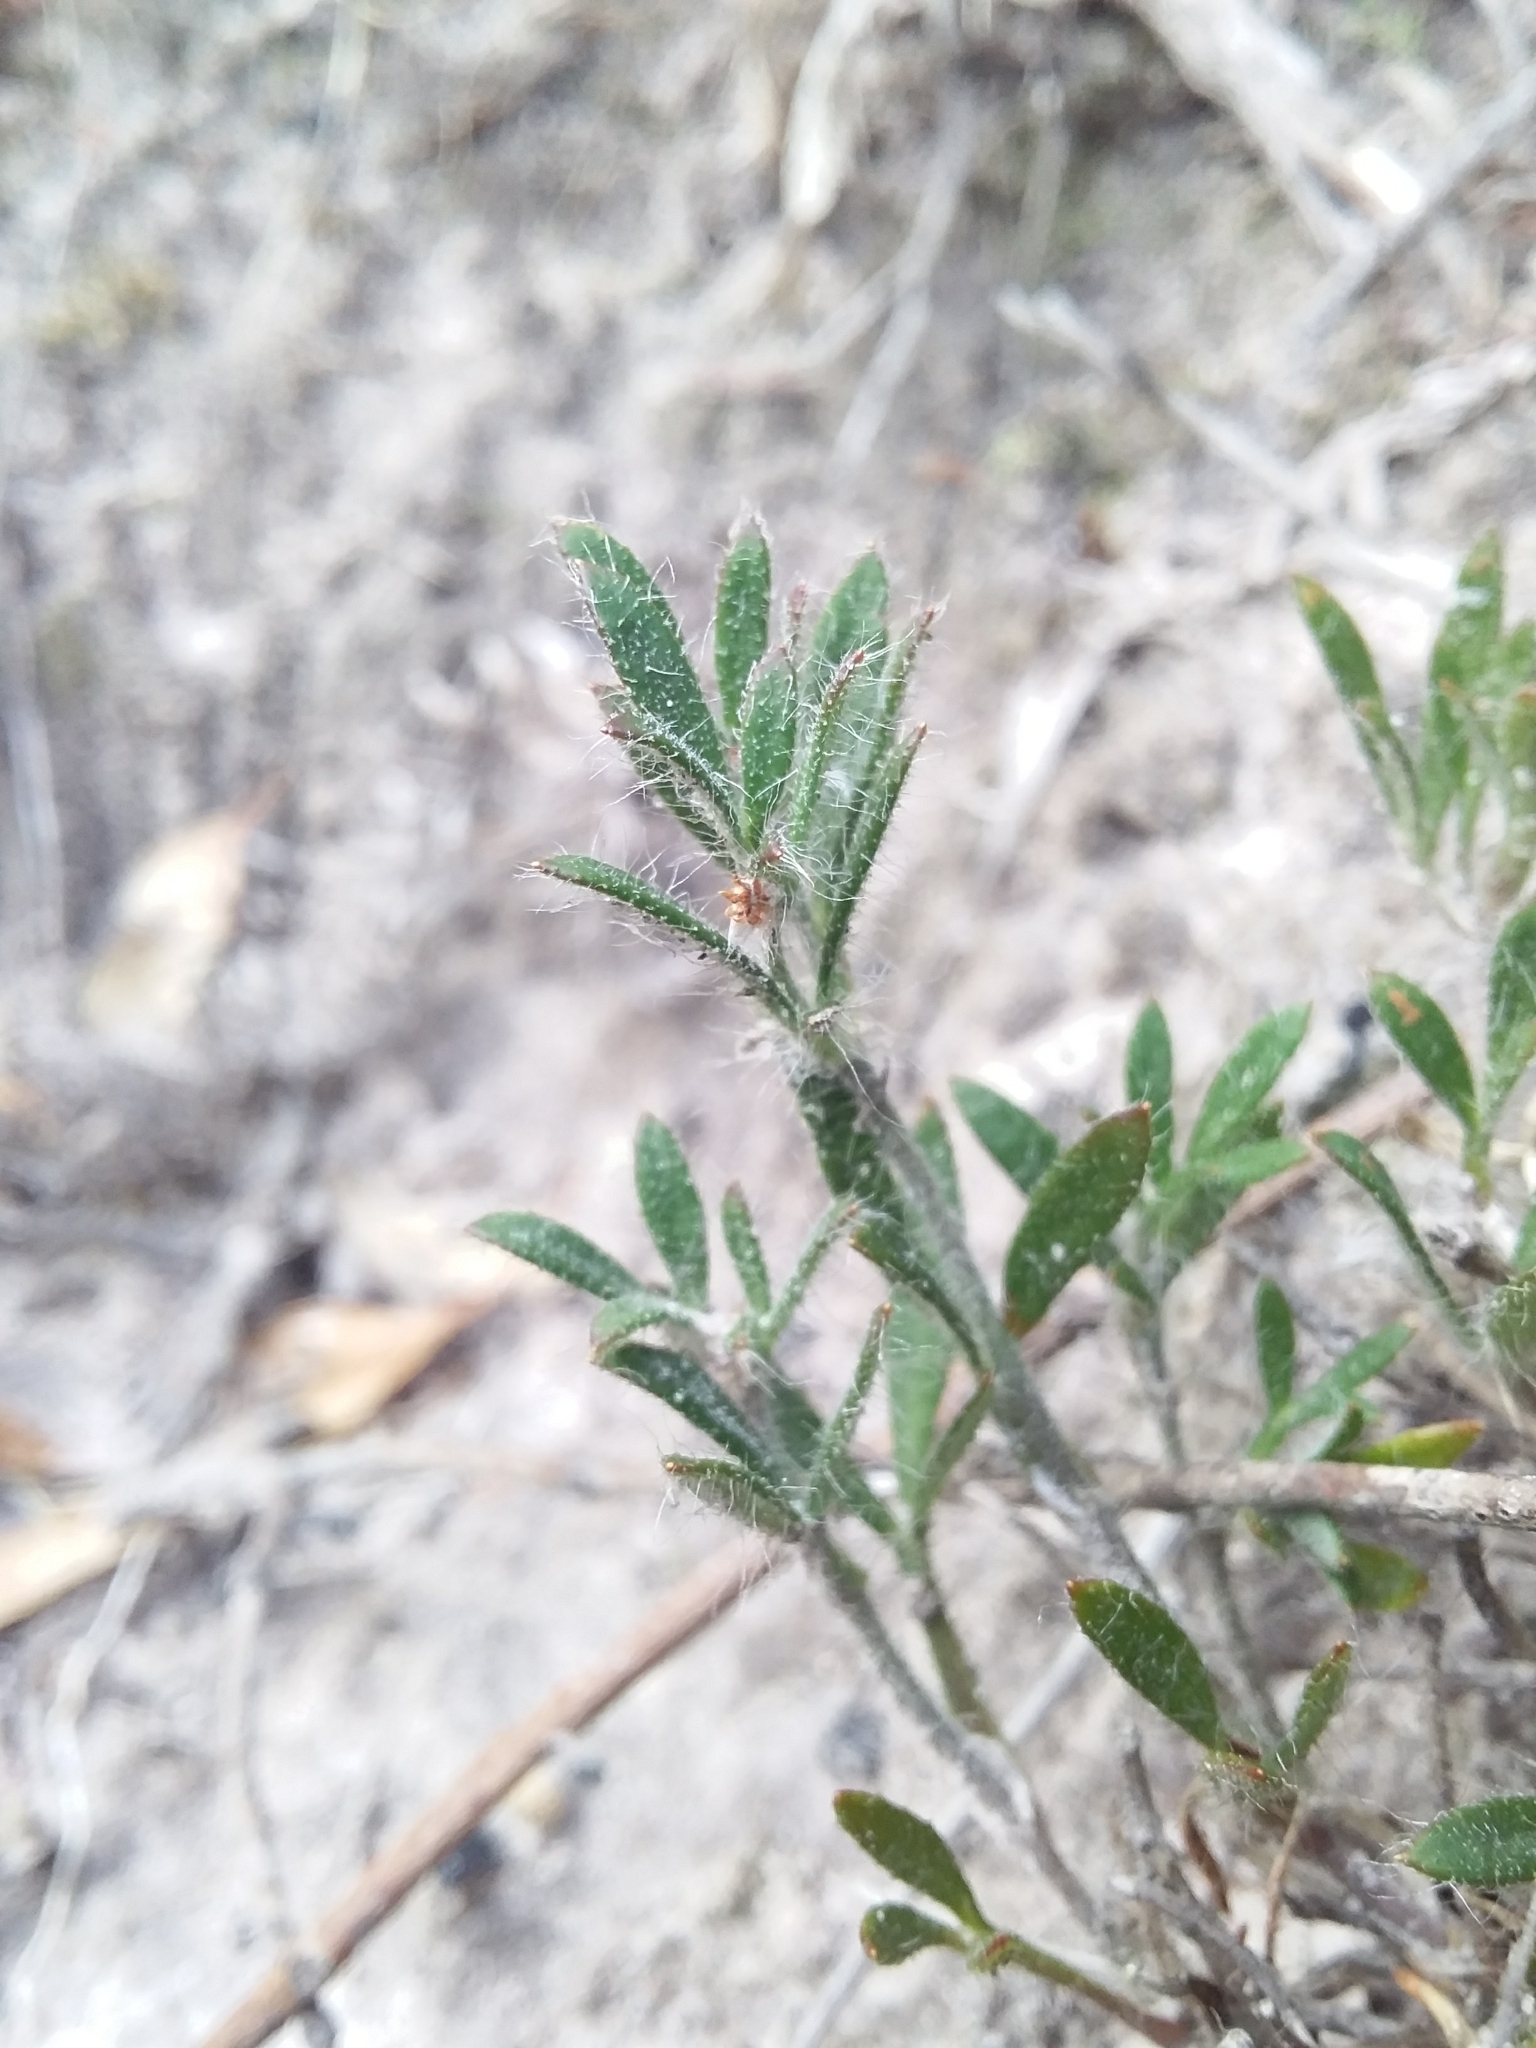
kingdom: Plantae
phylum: Tracheophyta
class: Magnoliopsida
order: Apiales
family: Apiaceae
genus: Xanthosia
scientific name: Xanthosia huegelii
